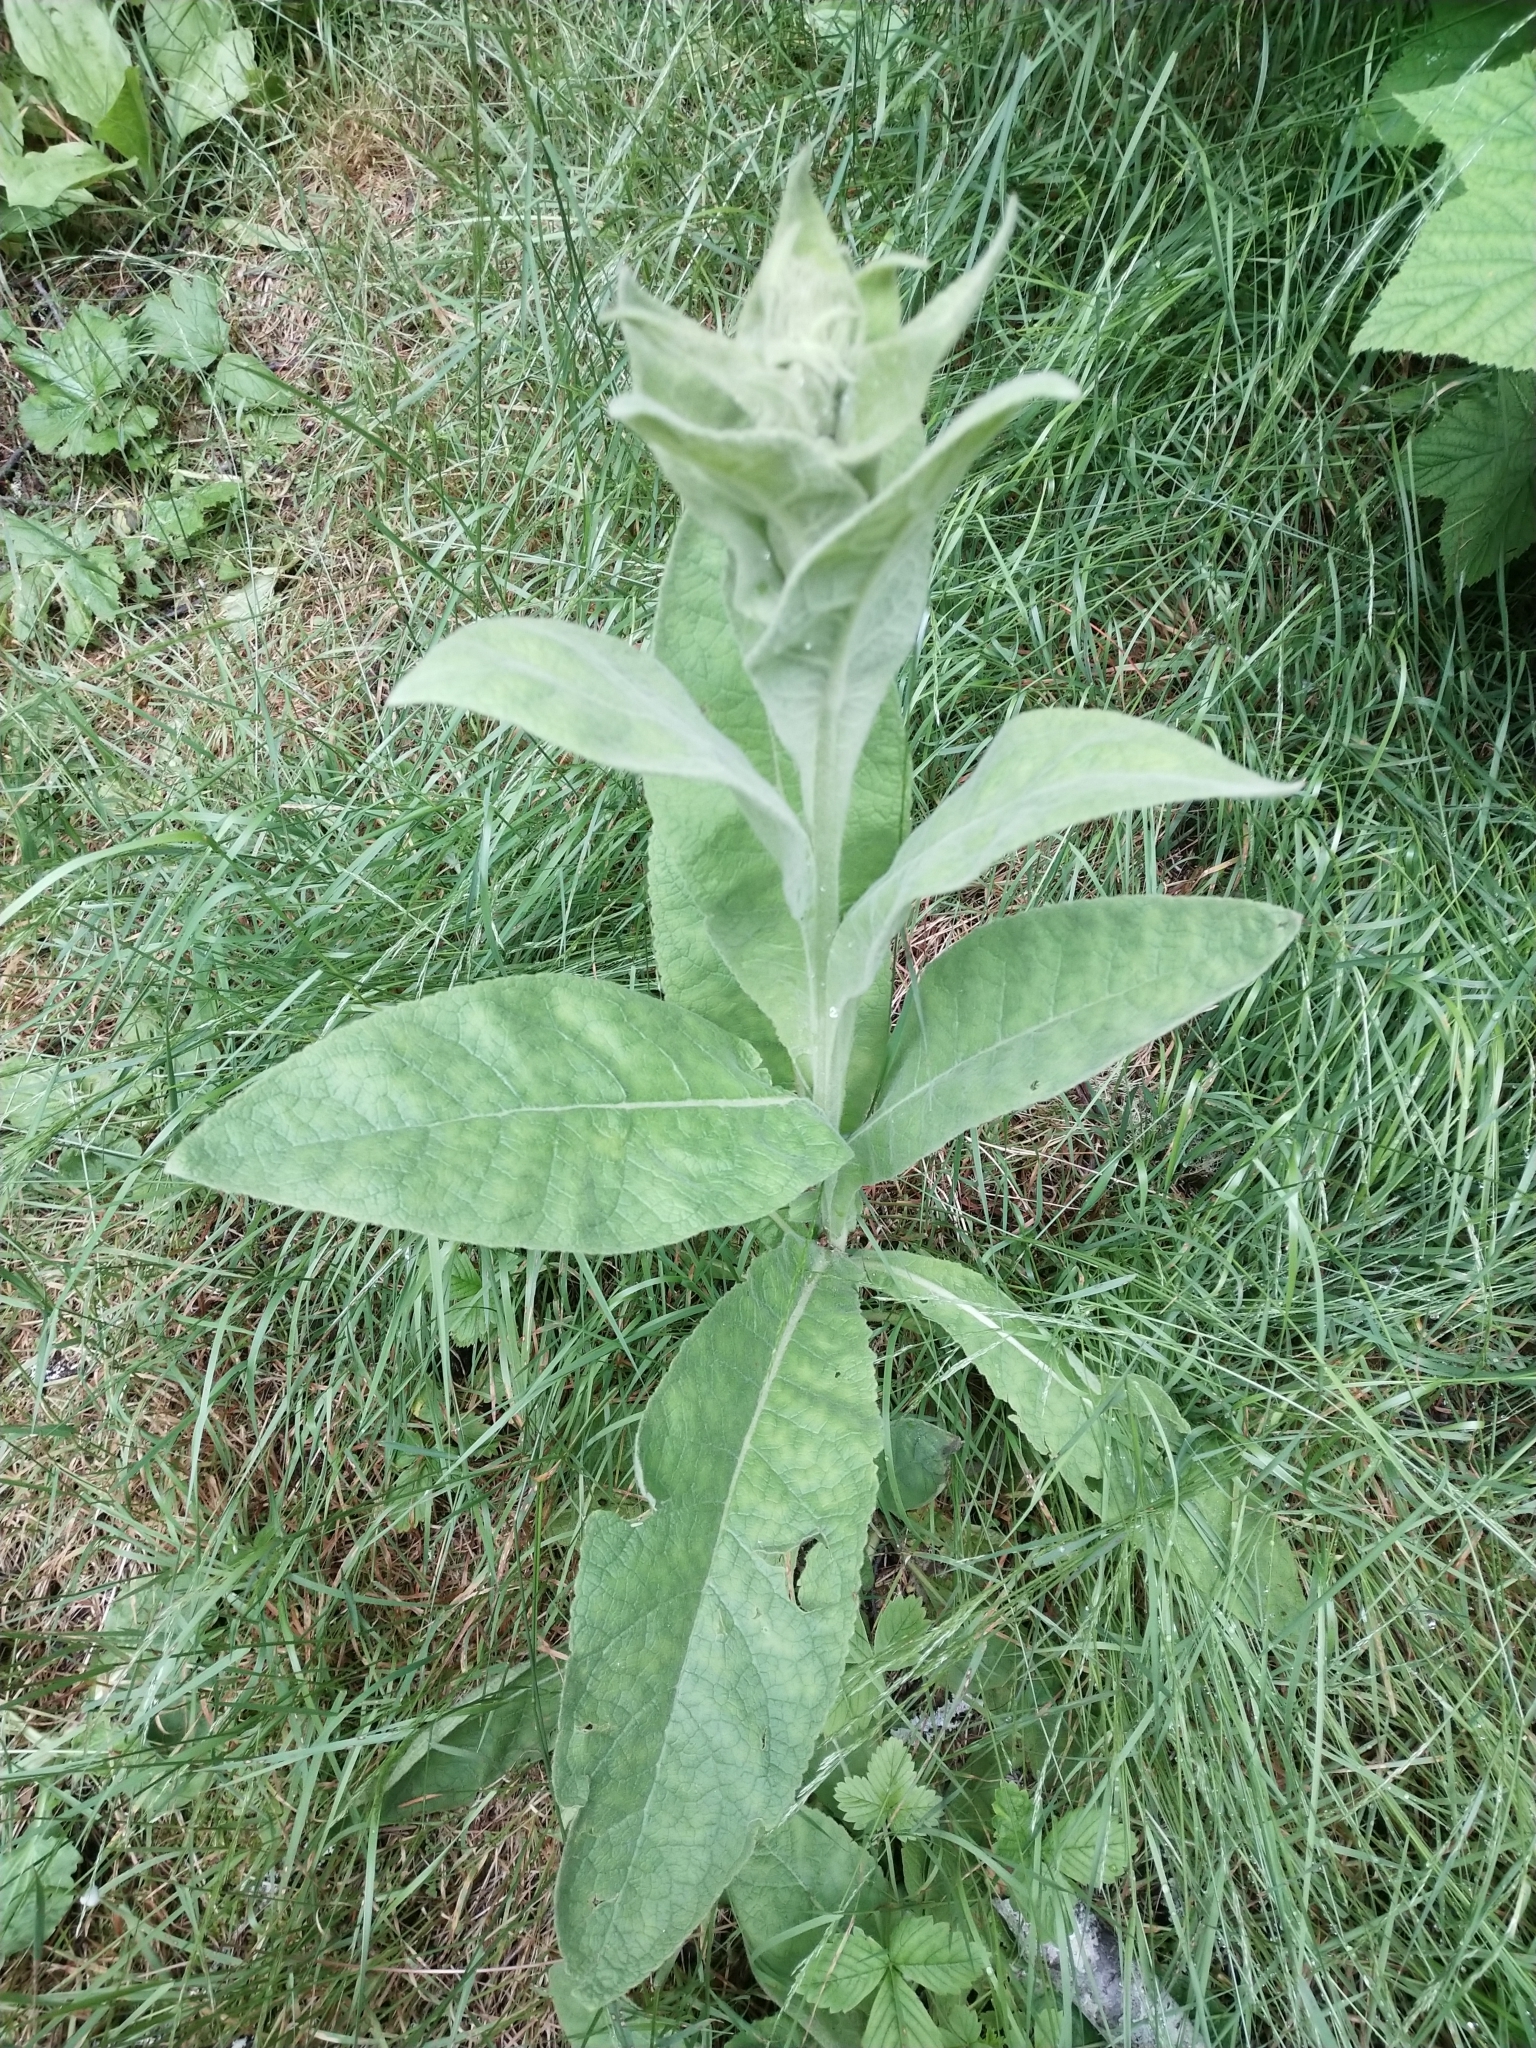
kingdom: Plantae
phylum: Tracheophyta
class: Magnoliopsida
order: Lamiales
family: Scrophulariaceae
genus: Verbascum
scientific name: Verbascum thapsus
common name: Common mullein
